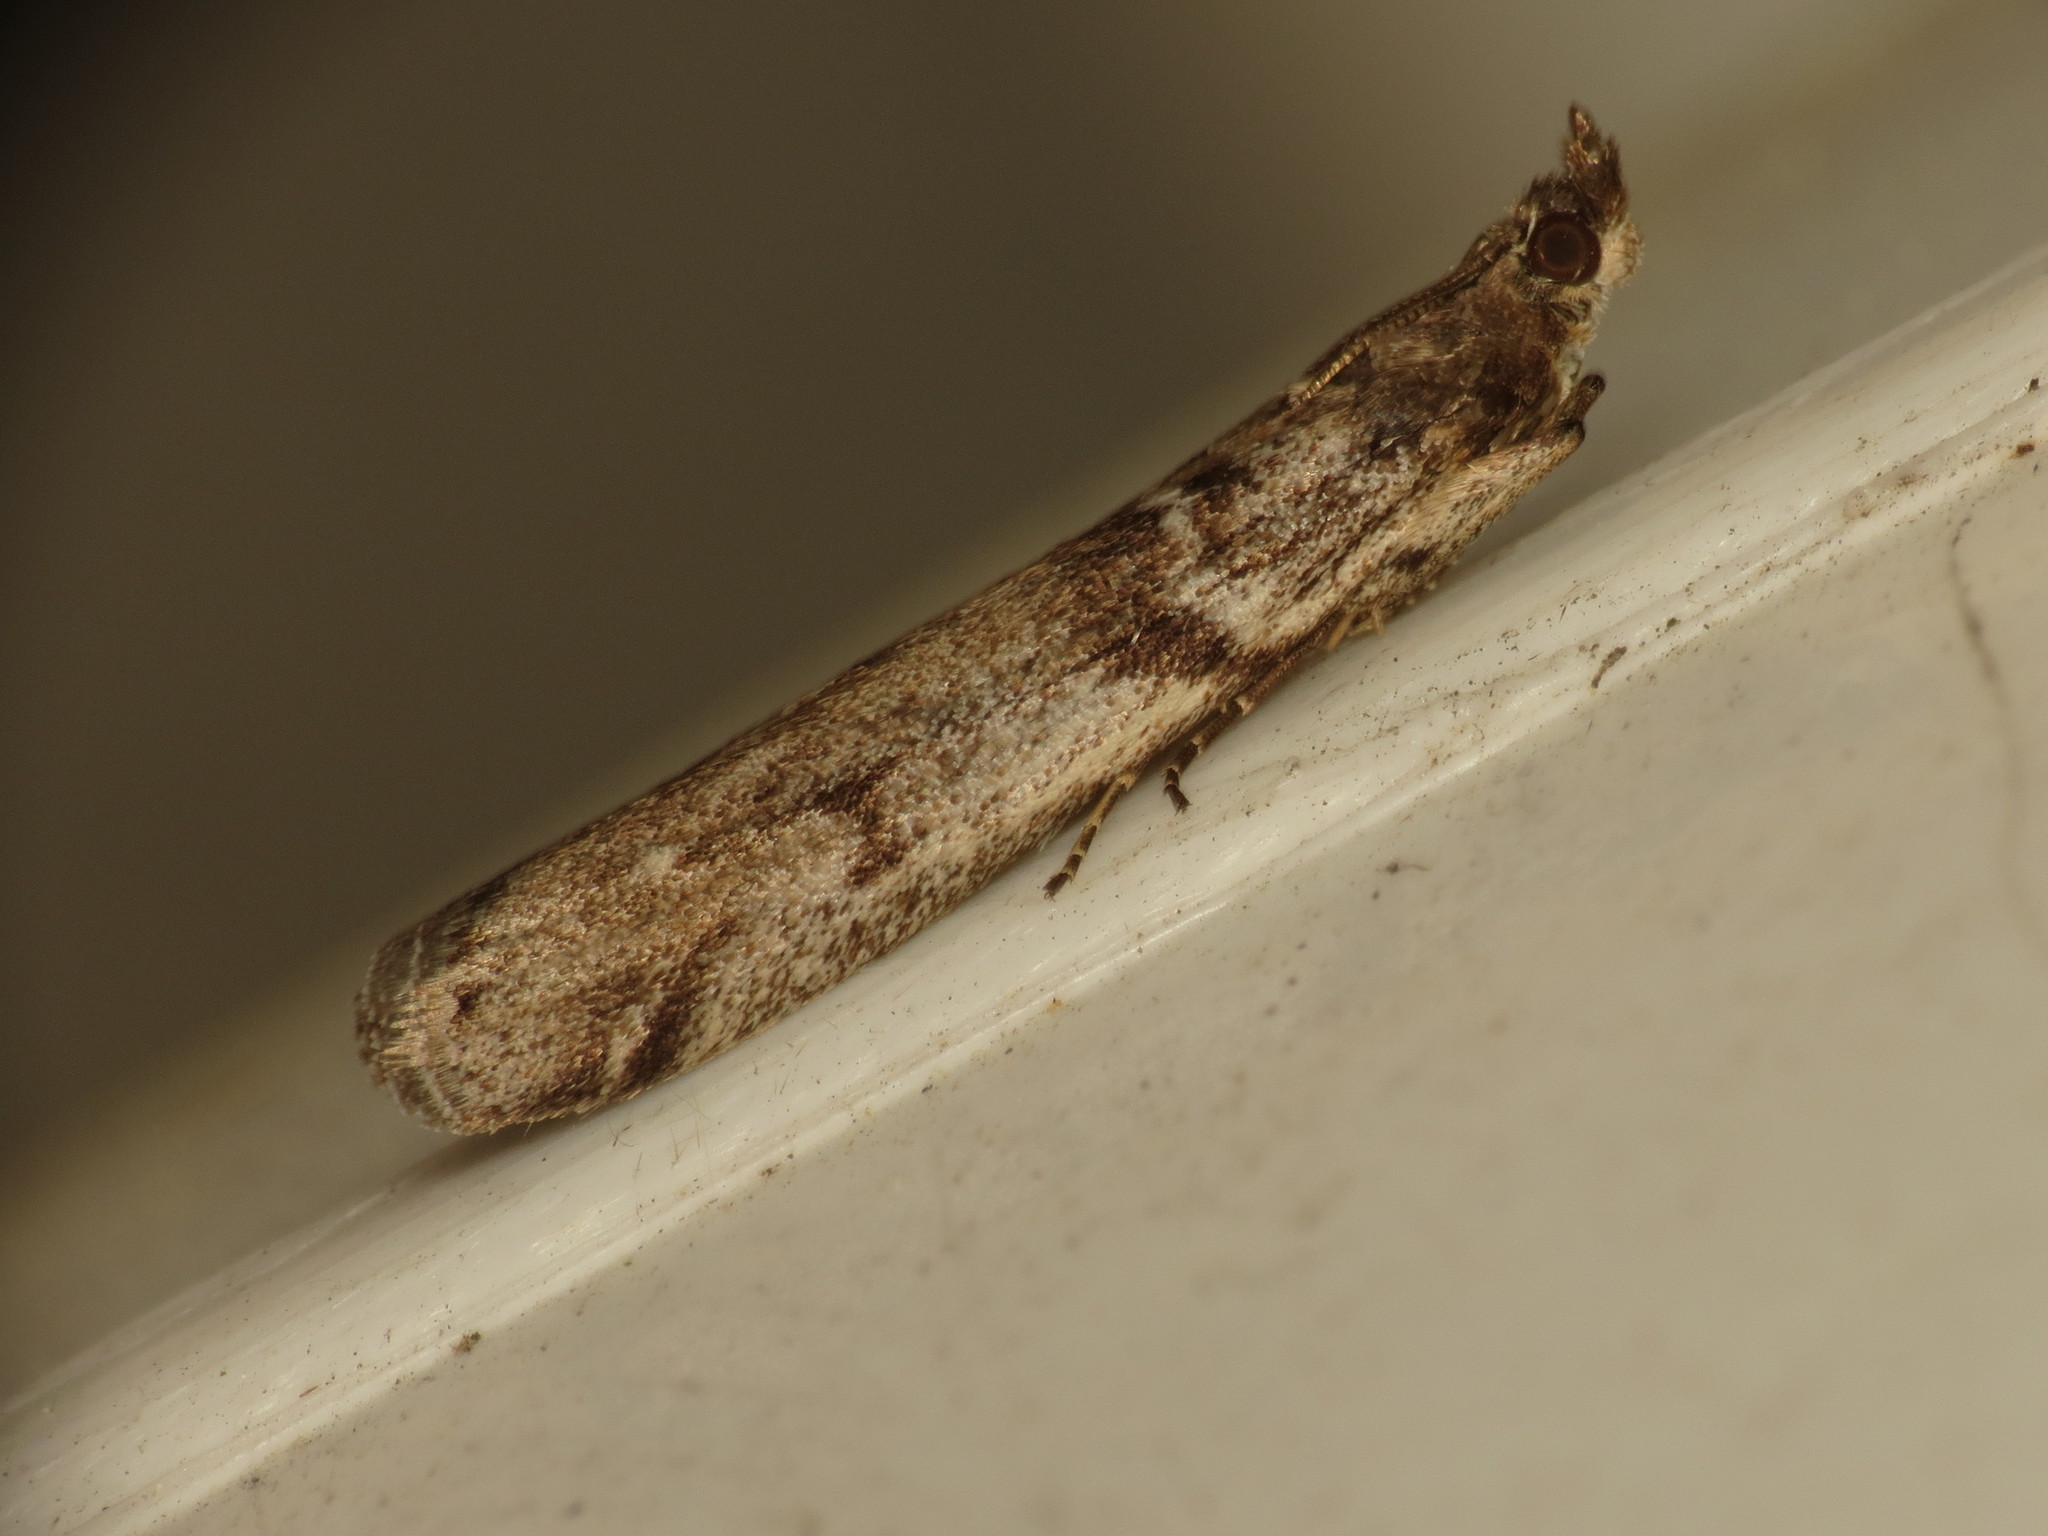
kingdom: Animalia
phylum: Arthropoda
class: Insecta
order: Lepidoptera
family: Pyralidae
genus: Zophodia
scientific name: Zophodia convolutella
